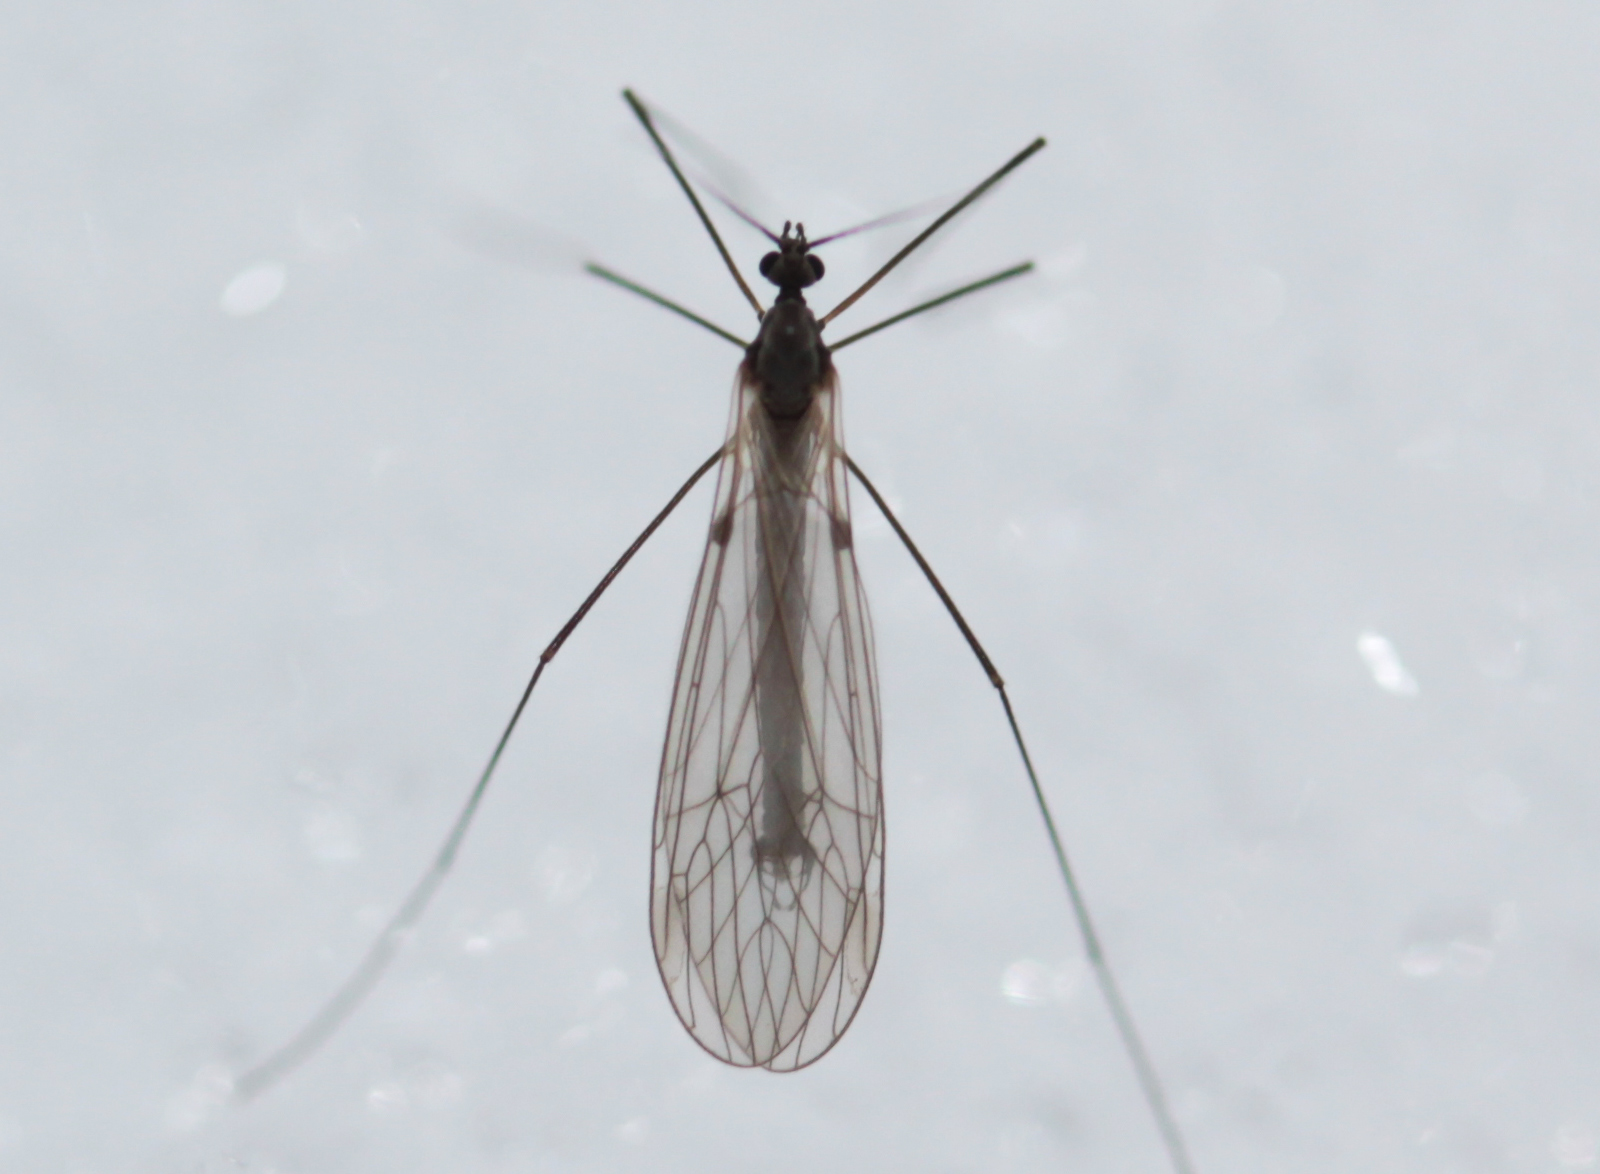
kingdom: Animalia
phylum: Arthropoda
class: Insecta
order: Diptera
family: Trichoceridae
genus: Trichocera
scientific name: Trichocera salmani
